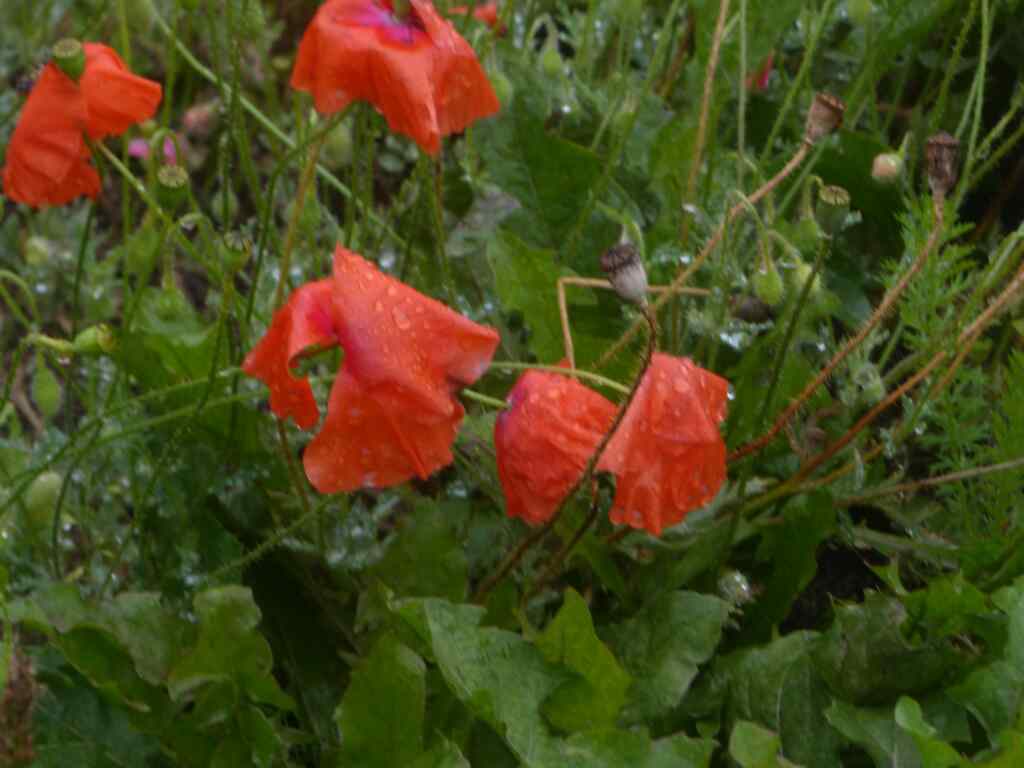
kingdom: Plantae
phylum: Tracheophyta
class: Magnoliopsida
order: Ranunculales
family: Papaveraceae
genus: Papaver
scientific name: Papaver rhoeas
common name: Corn poppy
